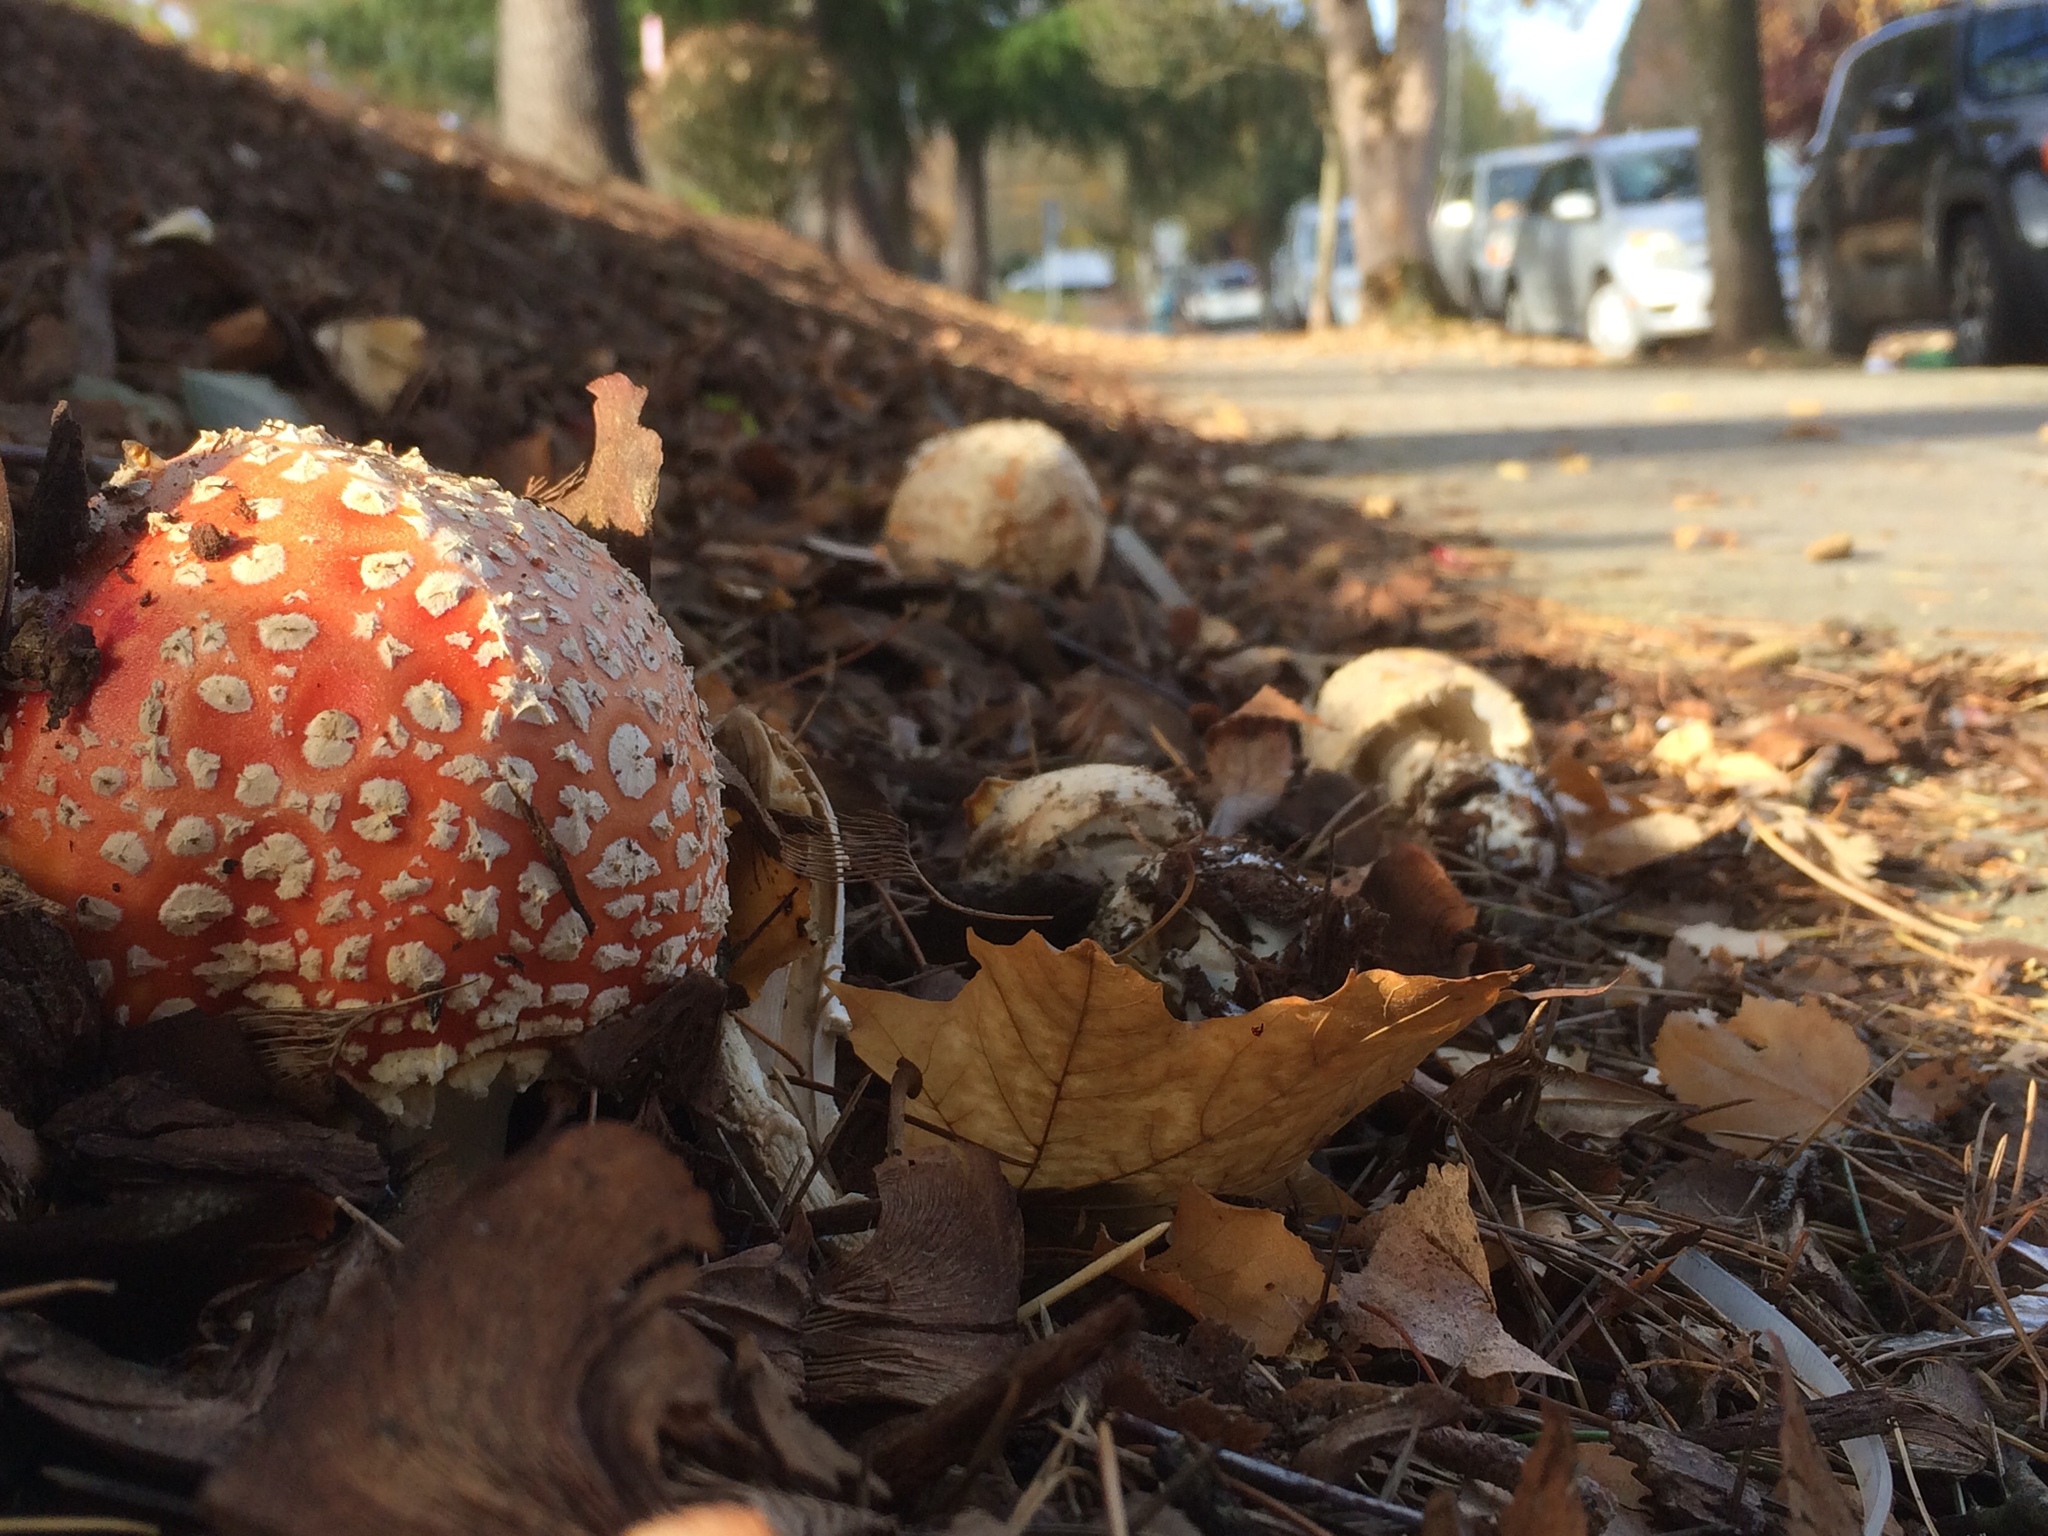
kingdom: Fungi
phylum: Basidiomycota
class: Agaricomycetes
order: Agaricales
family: Amanitaceae
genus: Amanita
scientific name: Amanita muscaria
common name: Fly agaric
